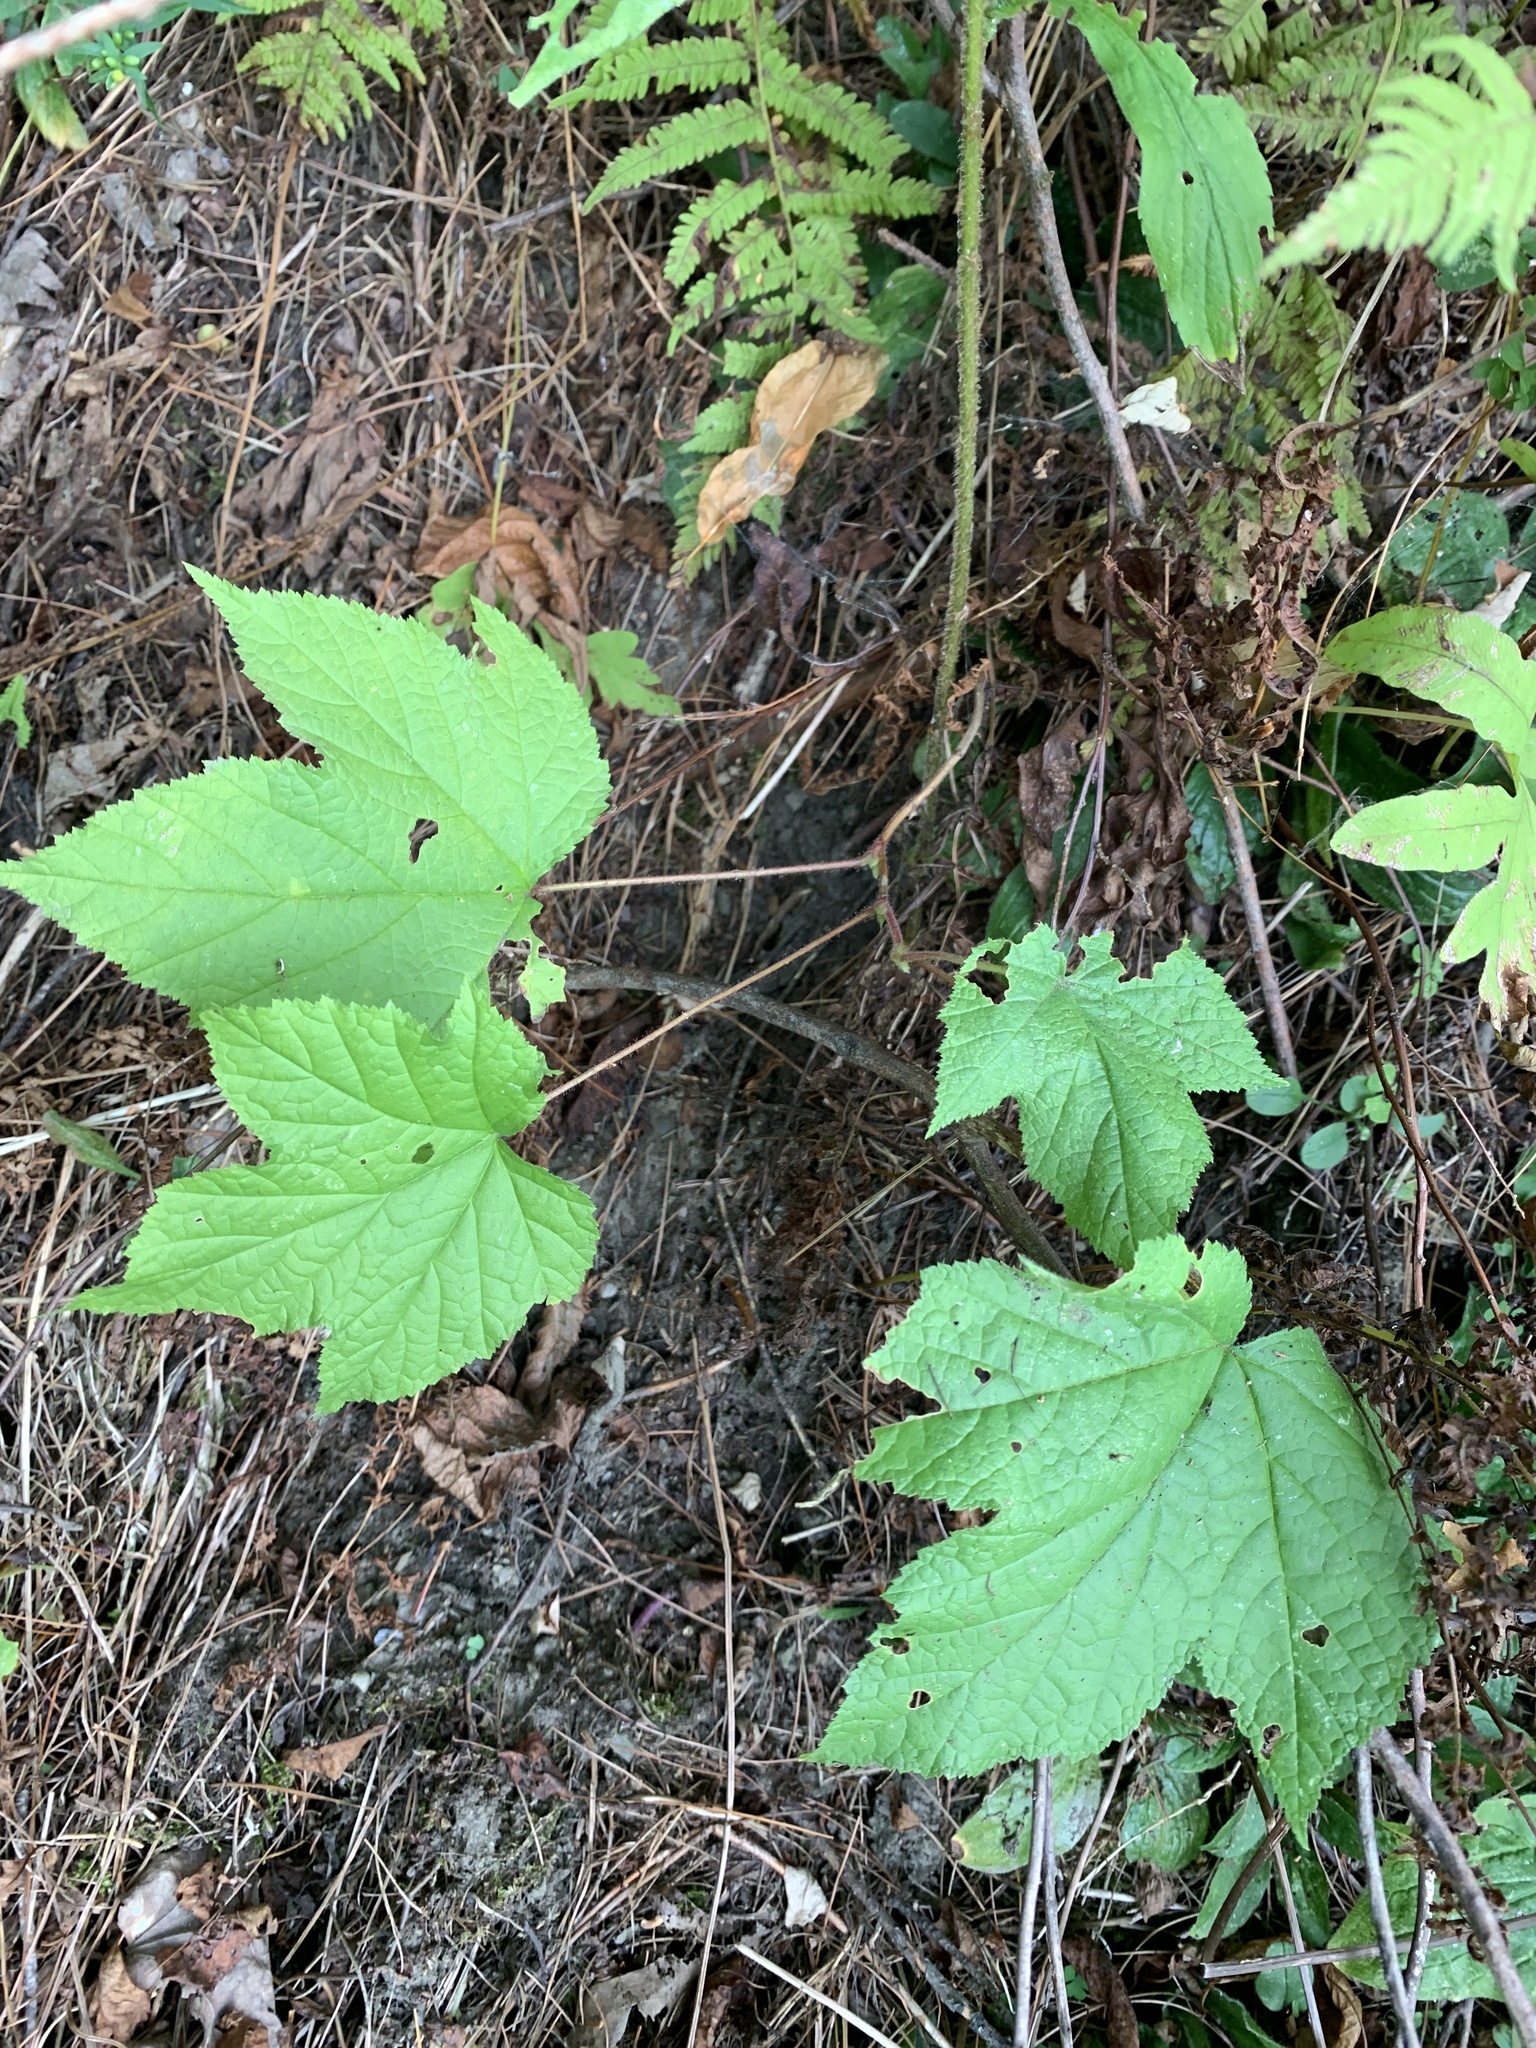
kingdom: Plantae
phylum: Tracheophyta
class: Magnoliopsida
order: Rosales
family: Rosaceae
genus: Rubus
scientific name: Rubus odoratus
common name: Purple-flowered raspberry
